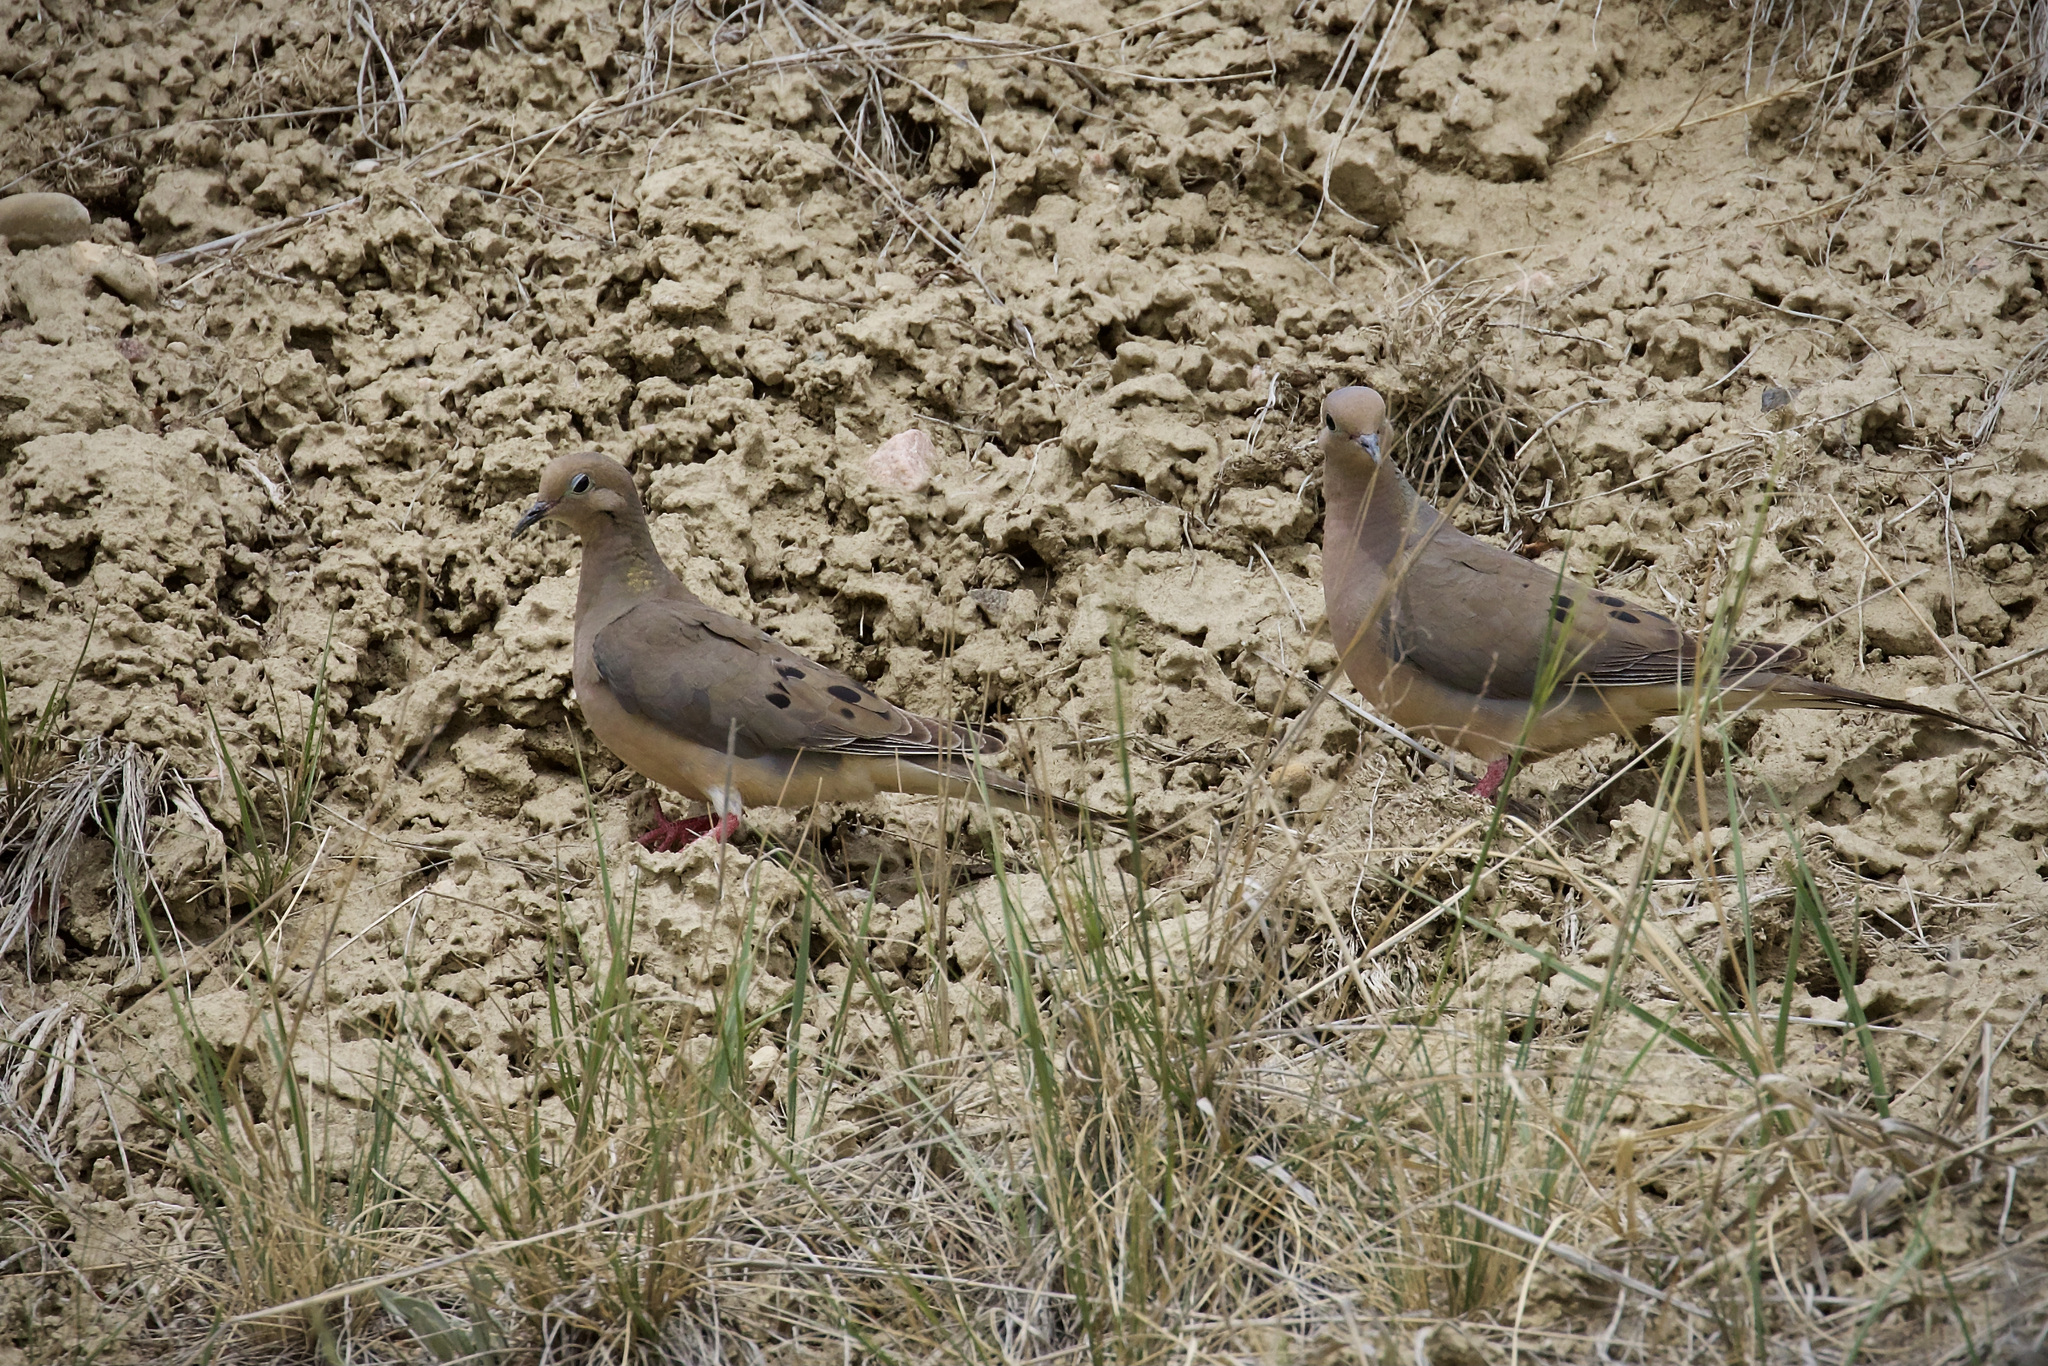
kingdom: Animalia
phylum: Chordata
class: Aves
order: Columbiformes
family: Columbidae
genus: Zenaida
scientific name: Zenaida macroura
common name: Mourning dove
